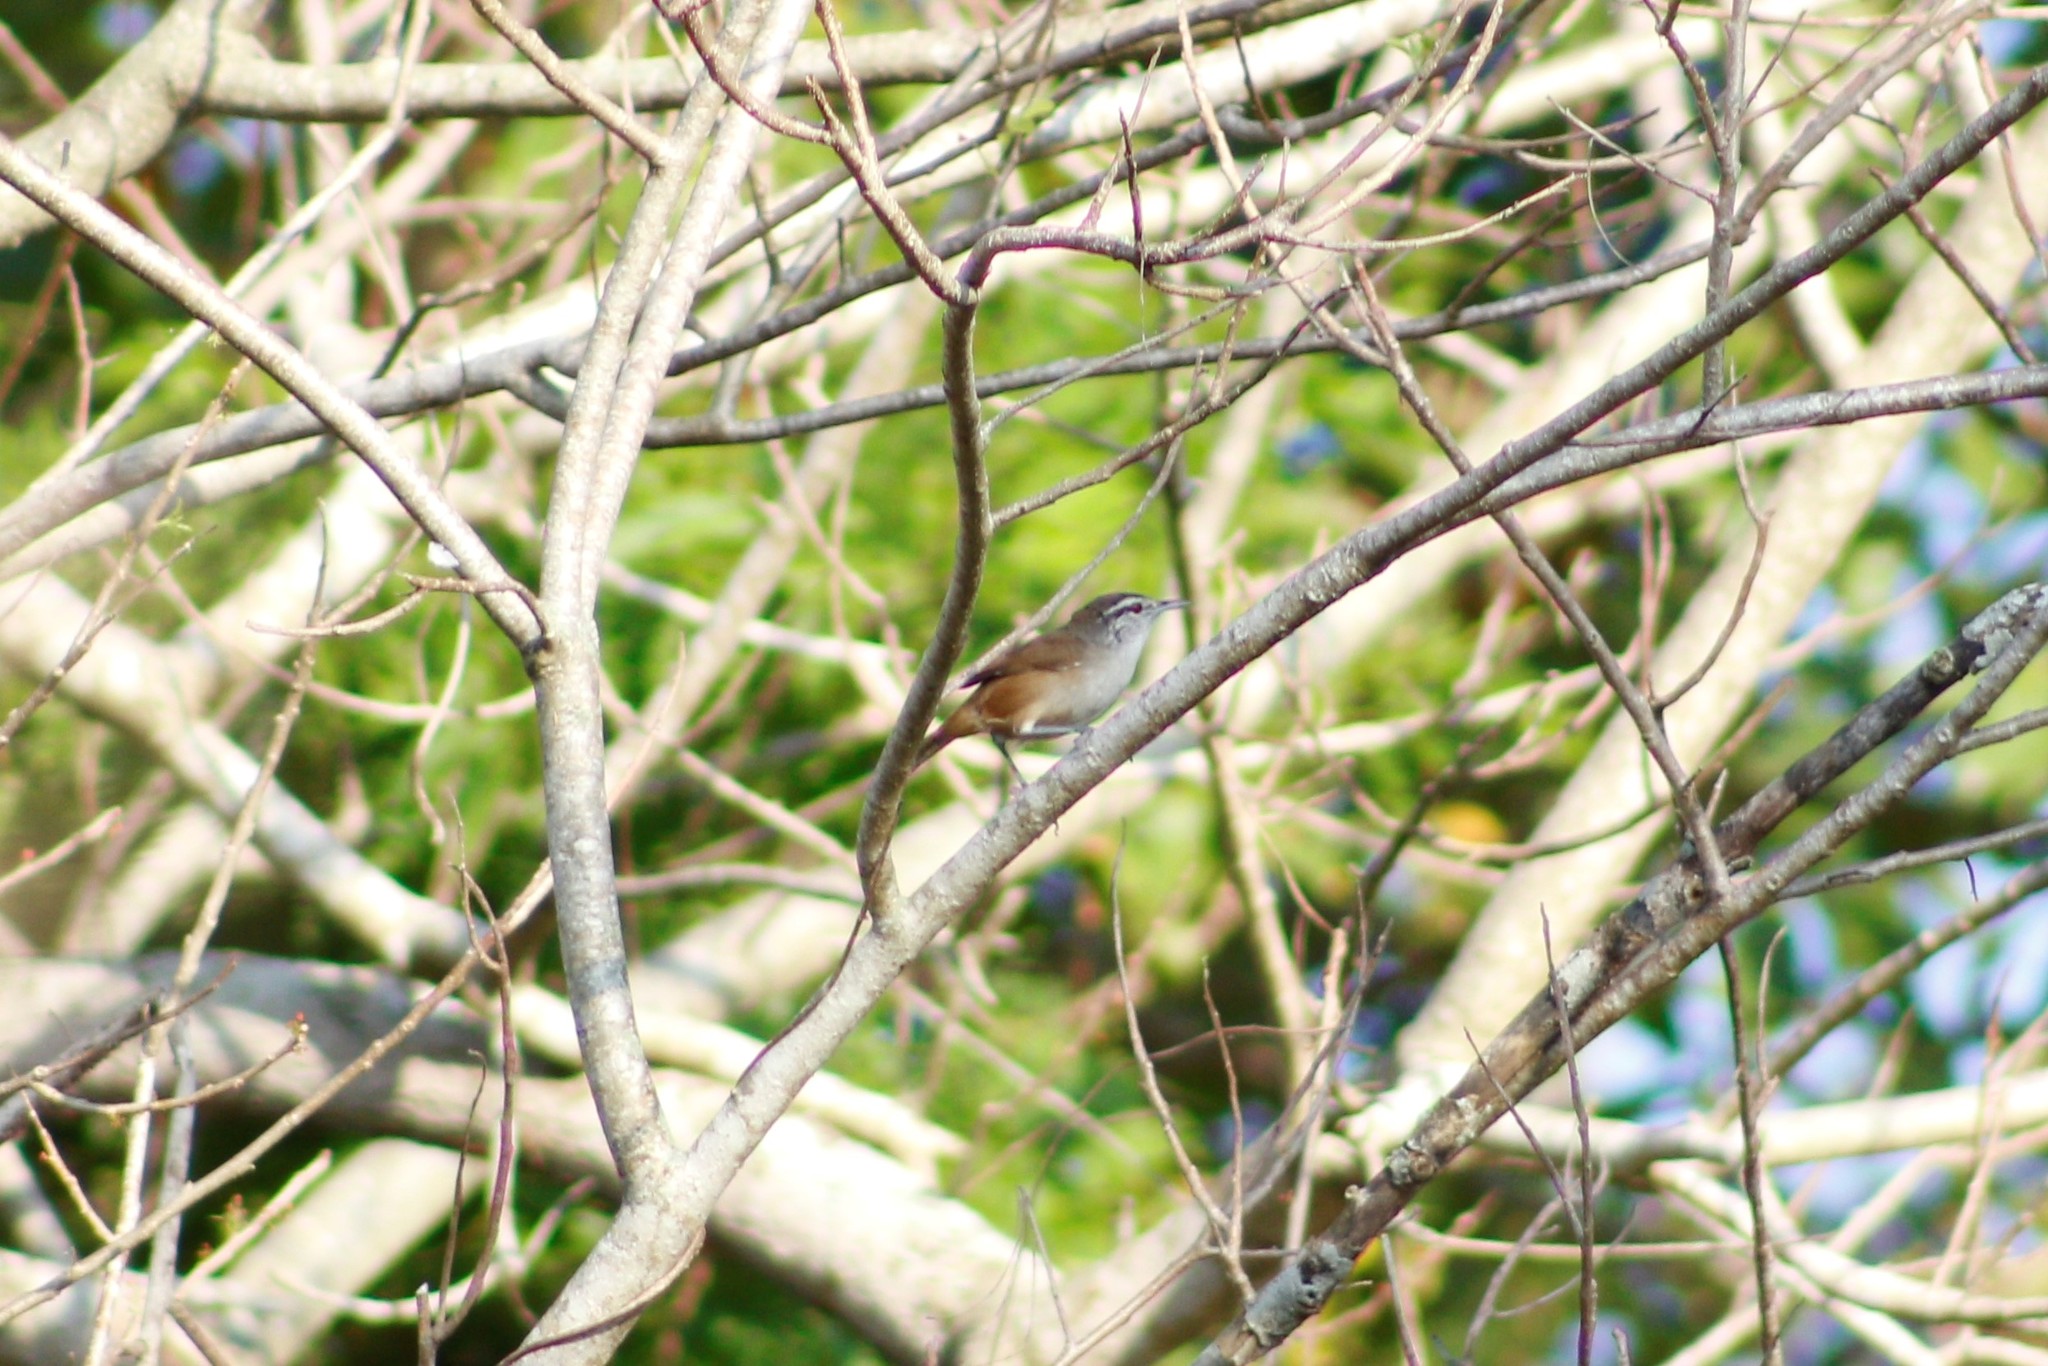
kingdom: Animalia
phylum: Chordata
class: Aves
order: Passeriformes
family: Troglodytidae
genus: Cantorchilus
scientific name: Cantorchilus modestus
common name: Cabanis's wren
